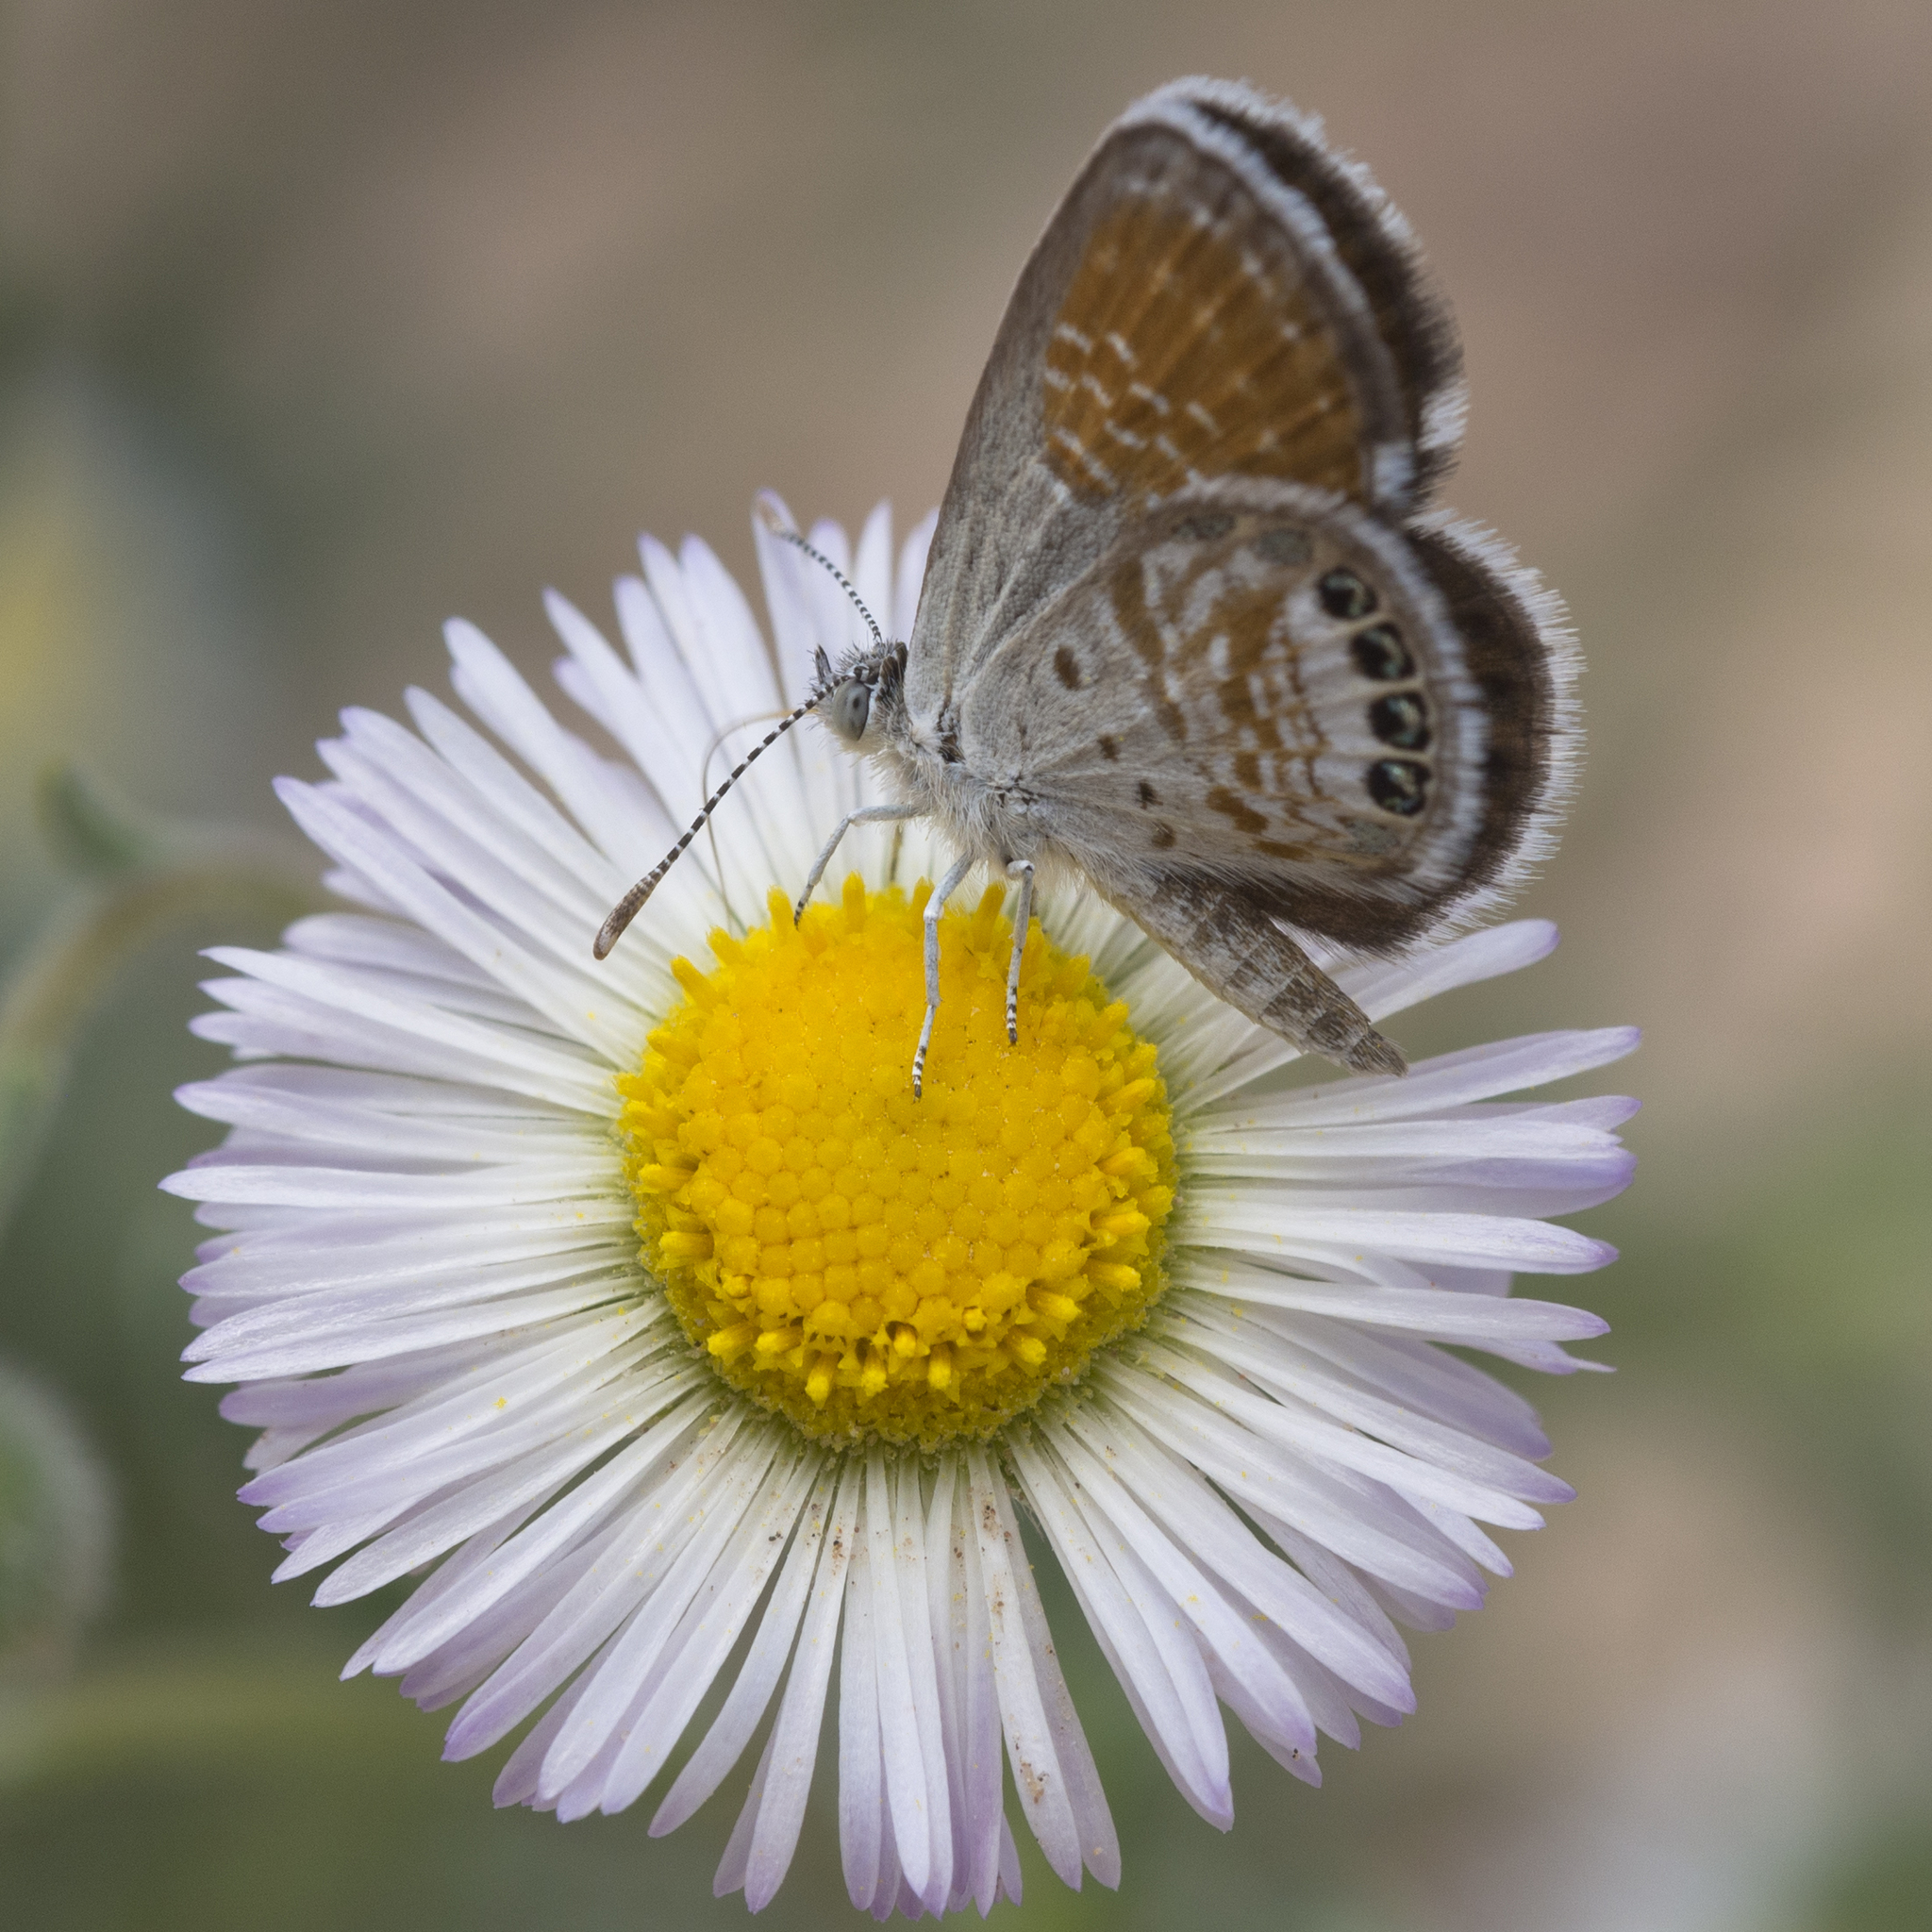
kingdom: Animalia
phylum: Arthropoda
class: Insecta
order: Lepidoptera
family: Lycaenidae
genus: Brephidium
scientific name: Brephidium exilis
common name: Pygmy blue
